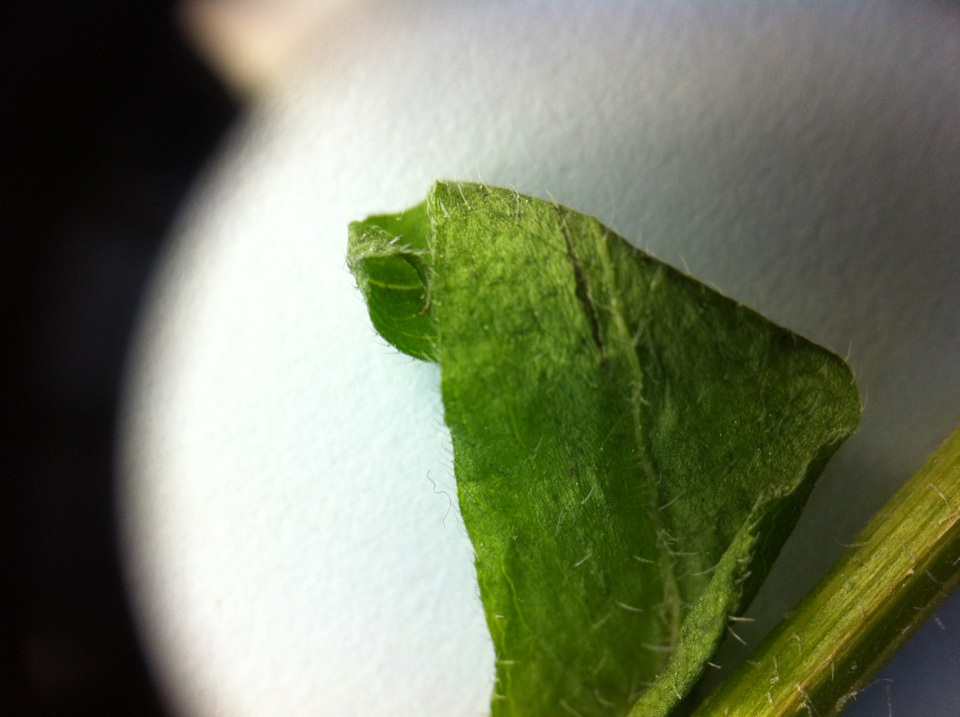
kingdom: Plantae
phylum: Tracheophyta
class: Magnoliopsida
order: Asterales
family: Asteraceae
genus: Erigeron
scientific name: Erigeron philadelphicus
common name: Robin's-plantain
